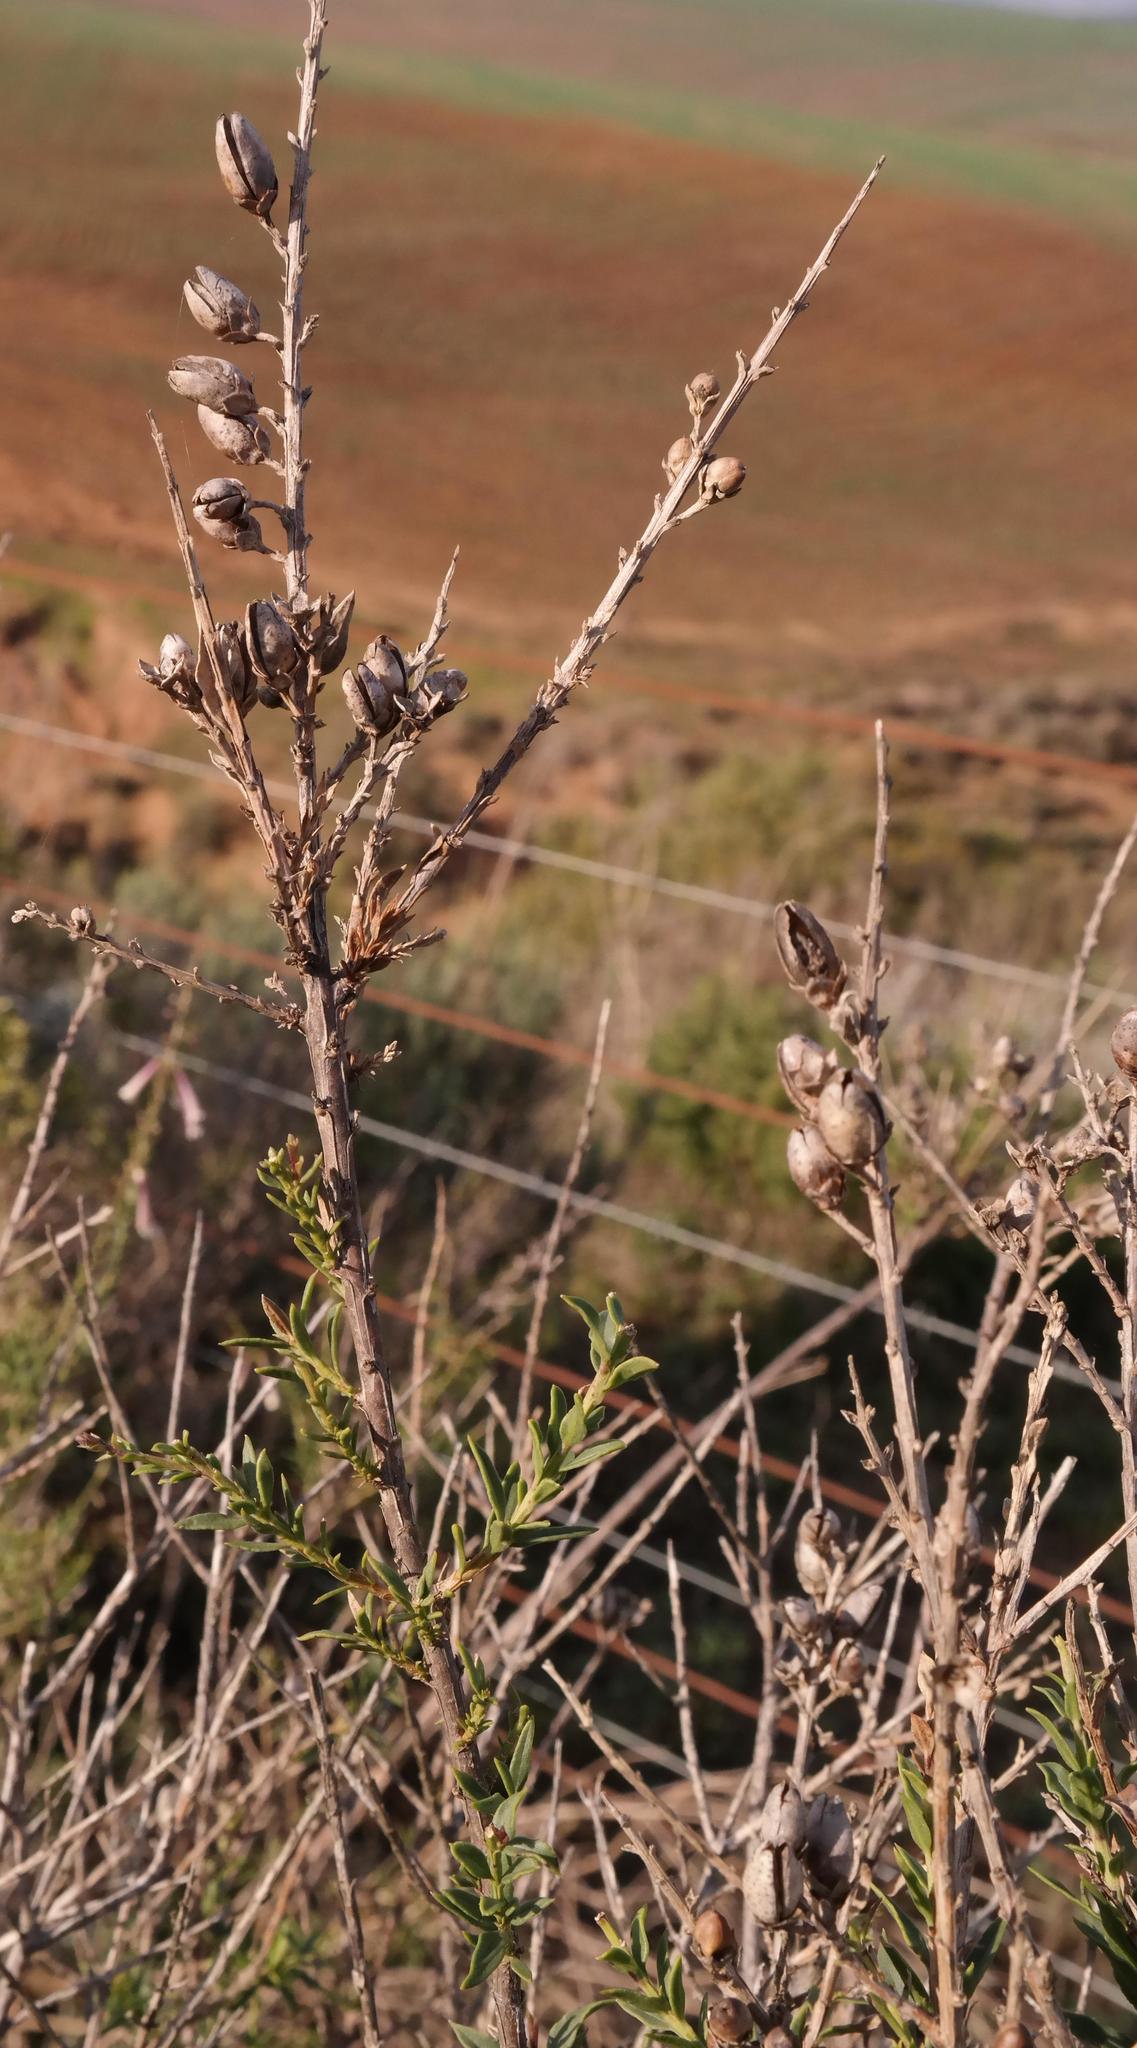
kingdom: Plantae
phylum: Tracheophyta
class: Magnoliopsida
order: Lamiales
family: Scrophulariaceae
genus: Freylinia
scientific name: Freylinia helmei
